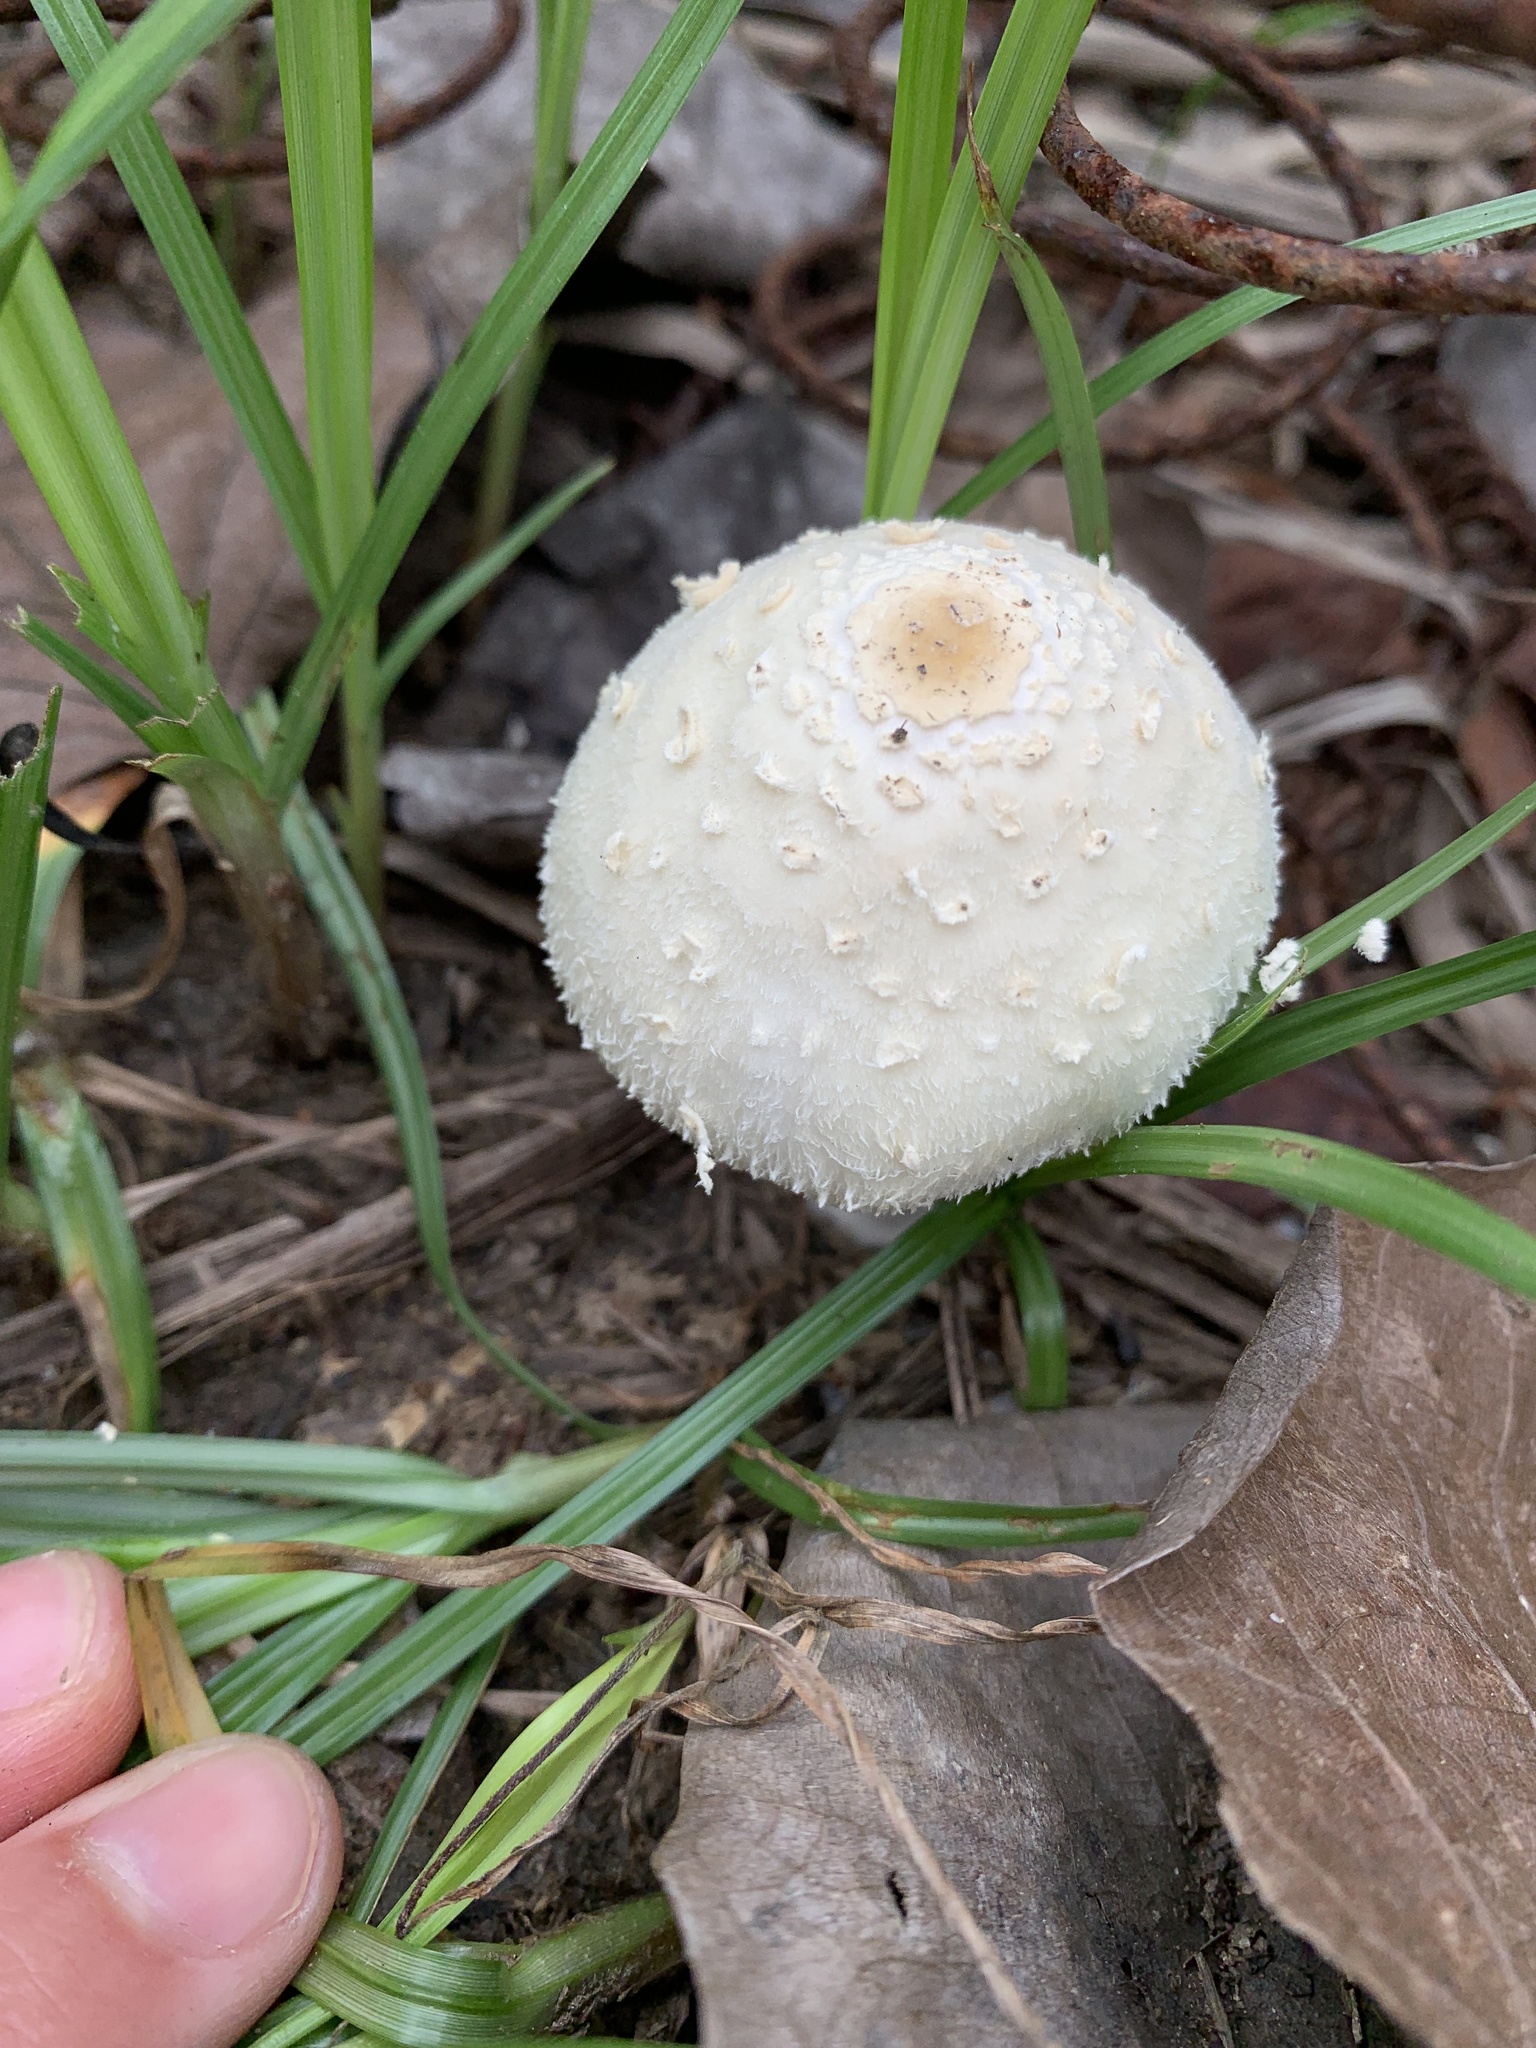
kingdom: Fungi
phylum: Basidiomycota
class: Agaricomycetes
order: Agaricales
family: Agaricaceae
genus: Chlorophyllum
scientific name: Chlorophyllum hortense
